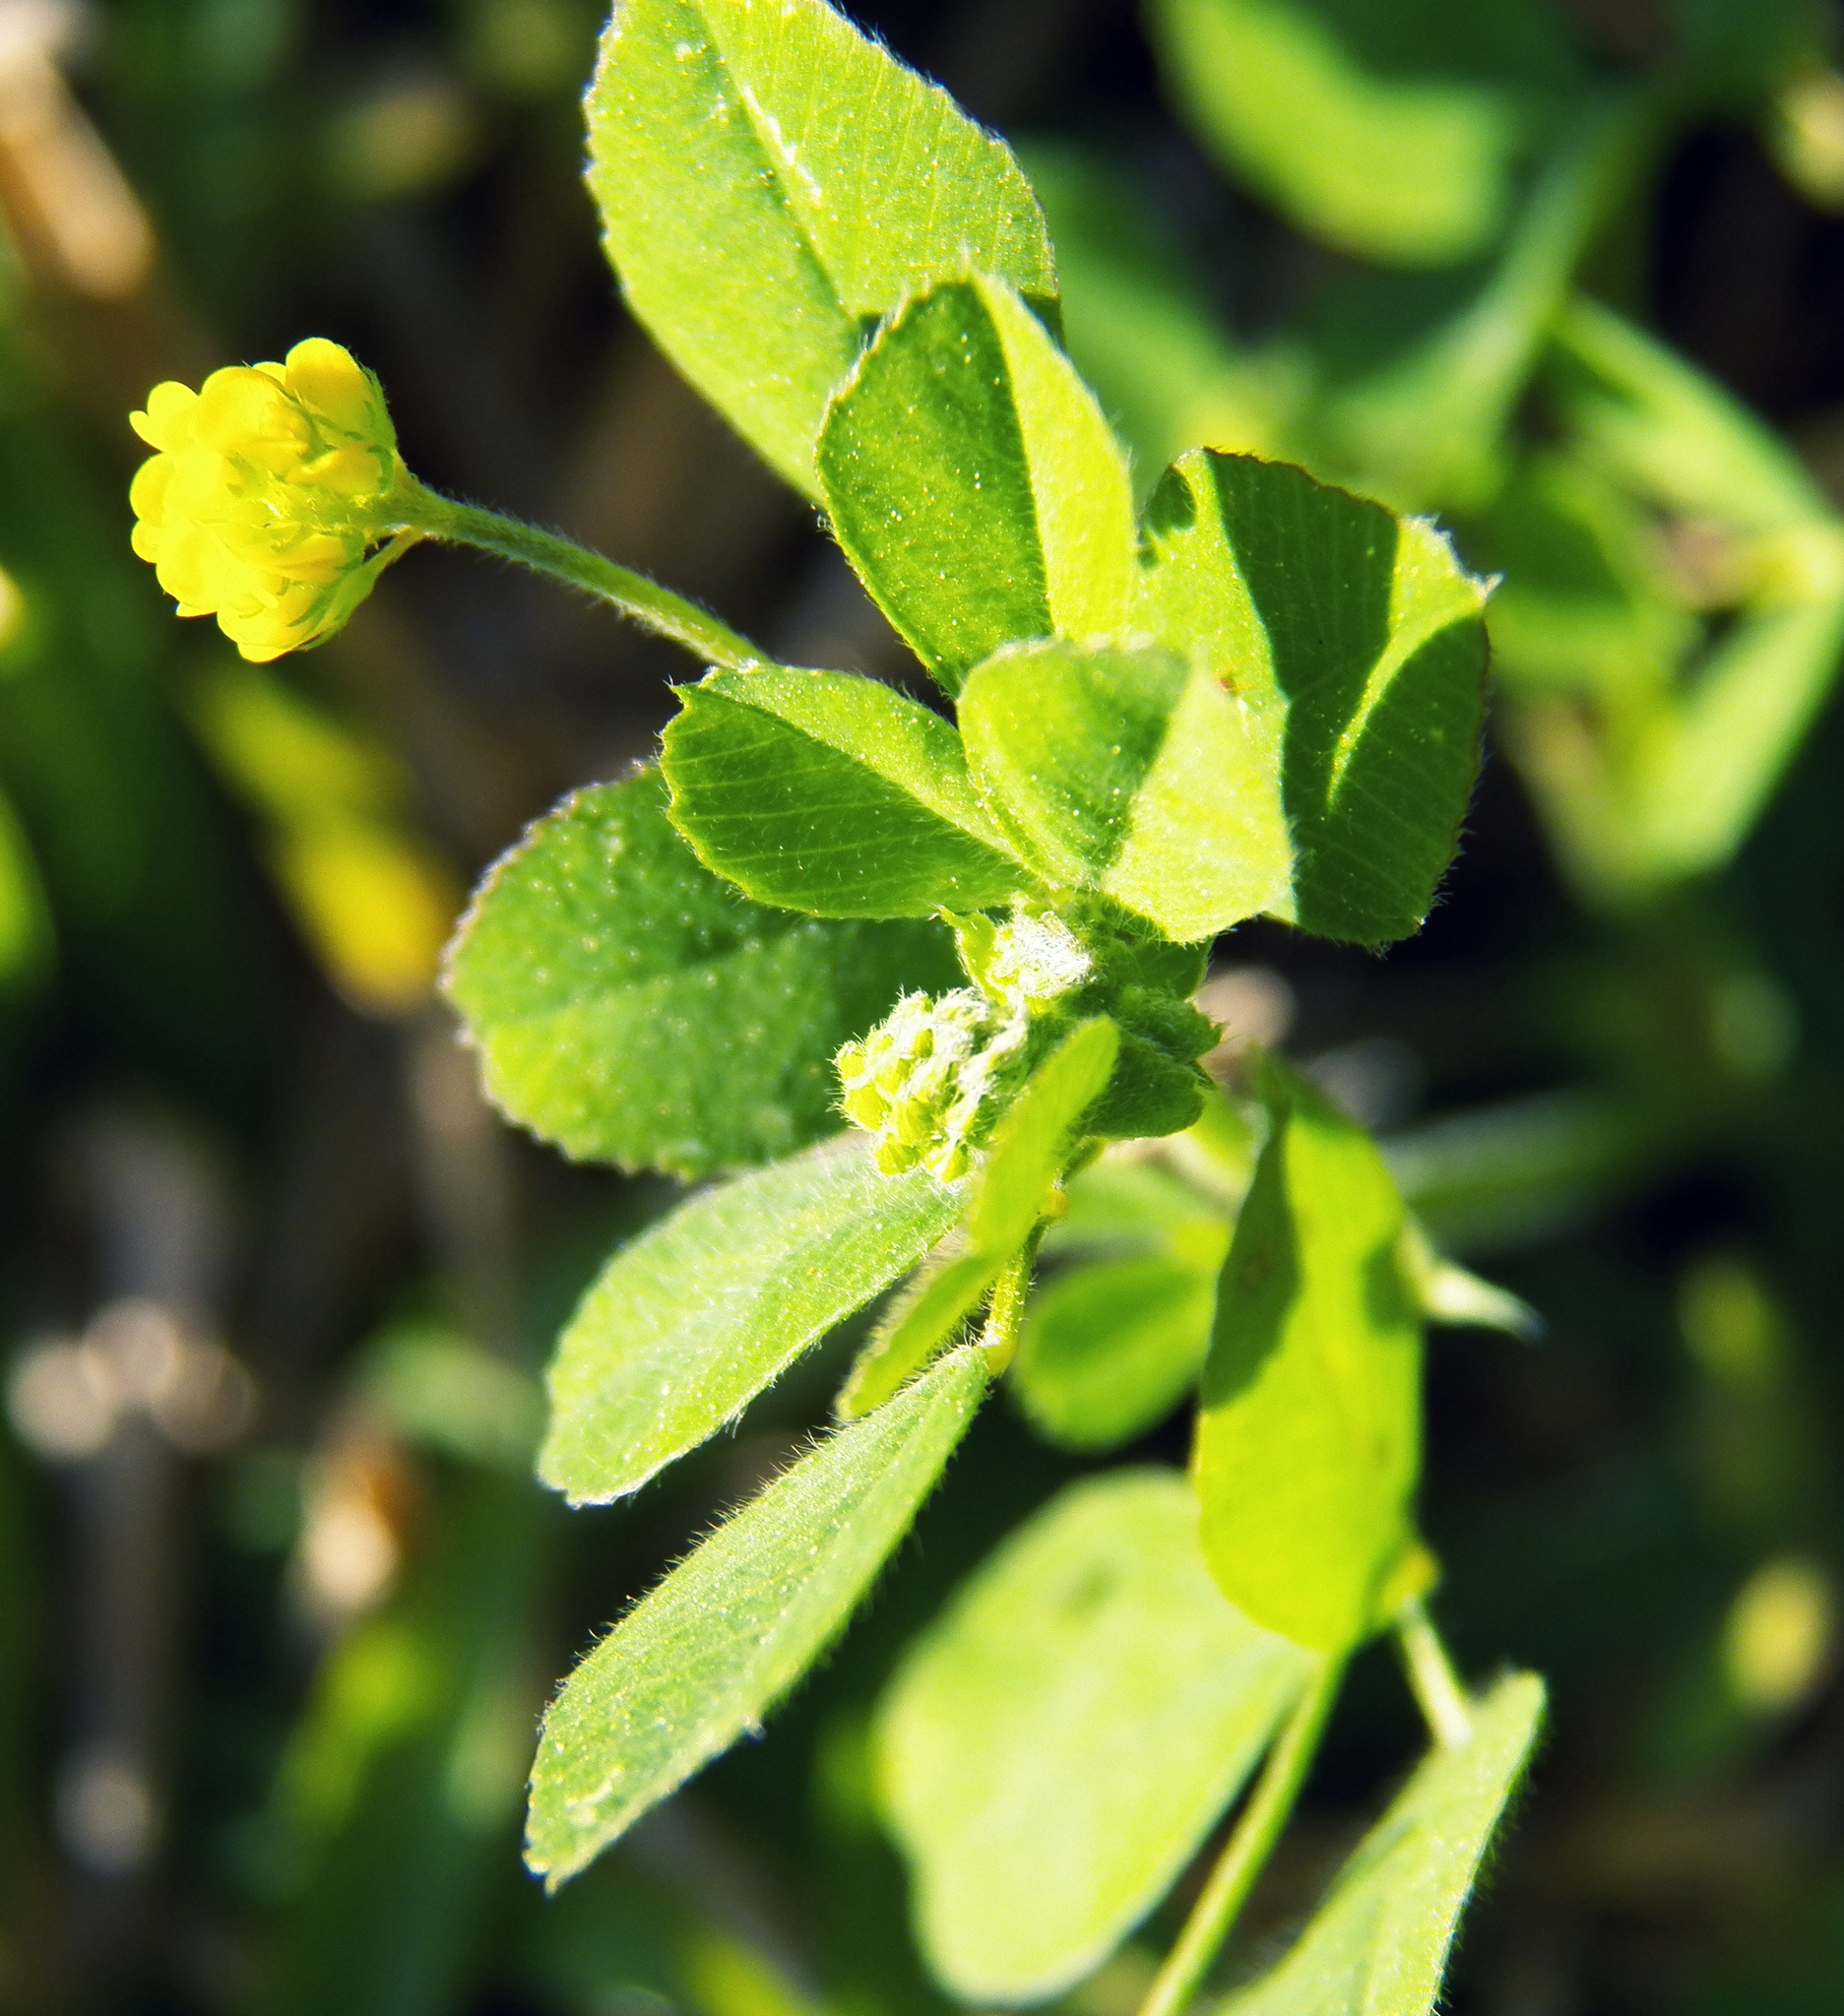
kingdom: Plantae
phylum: Tracheophyta
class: Magnoliopsida
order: Fabales
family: Fabaceae
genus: Medicago
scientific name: Medicago lupulina
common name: Black medick
